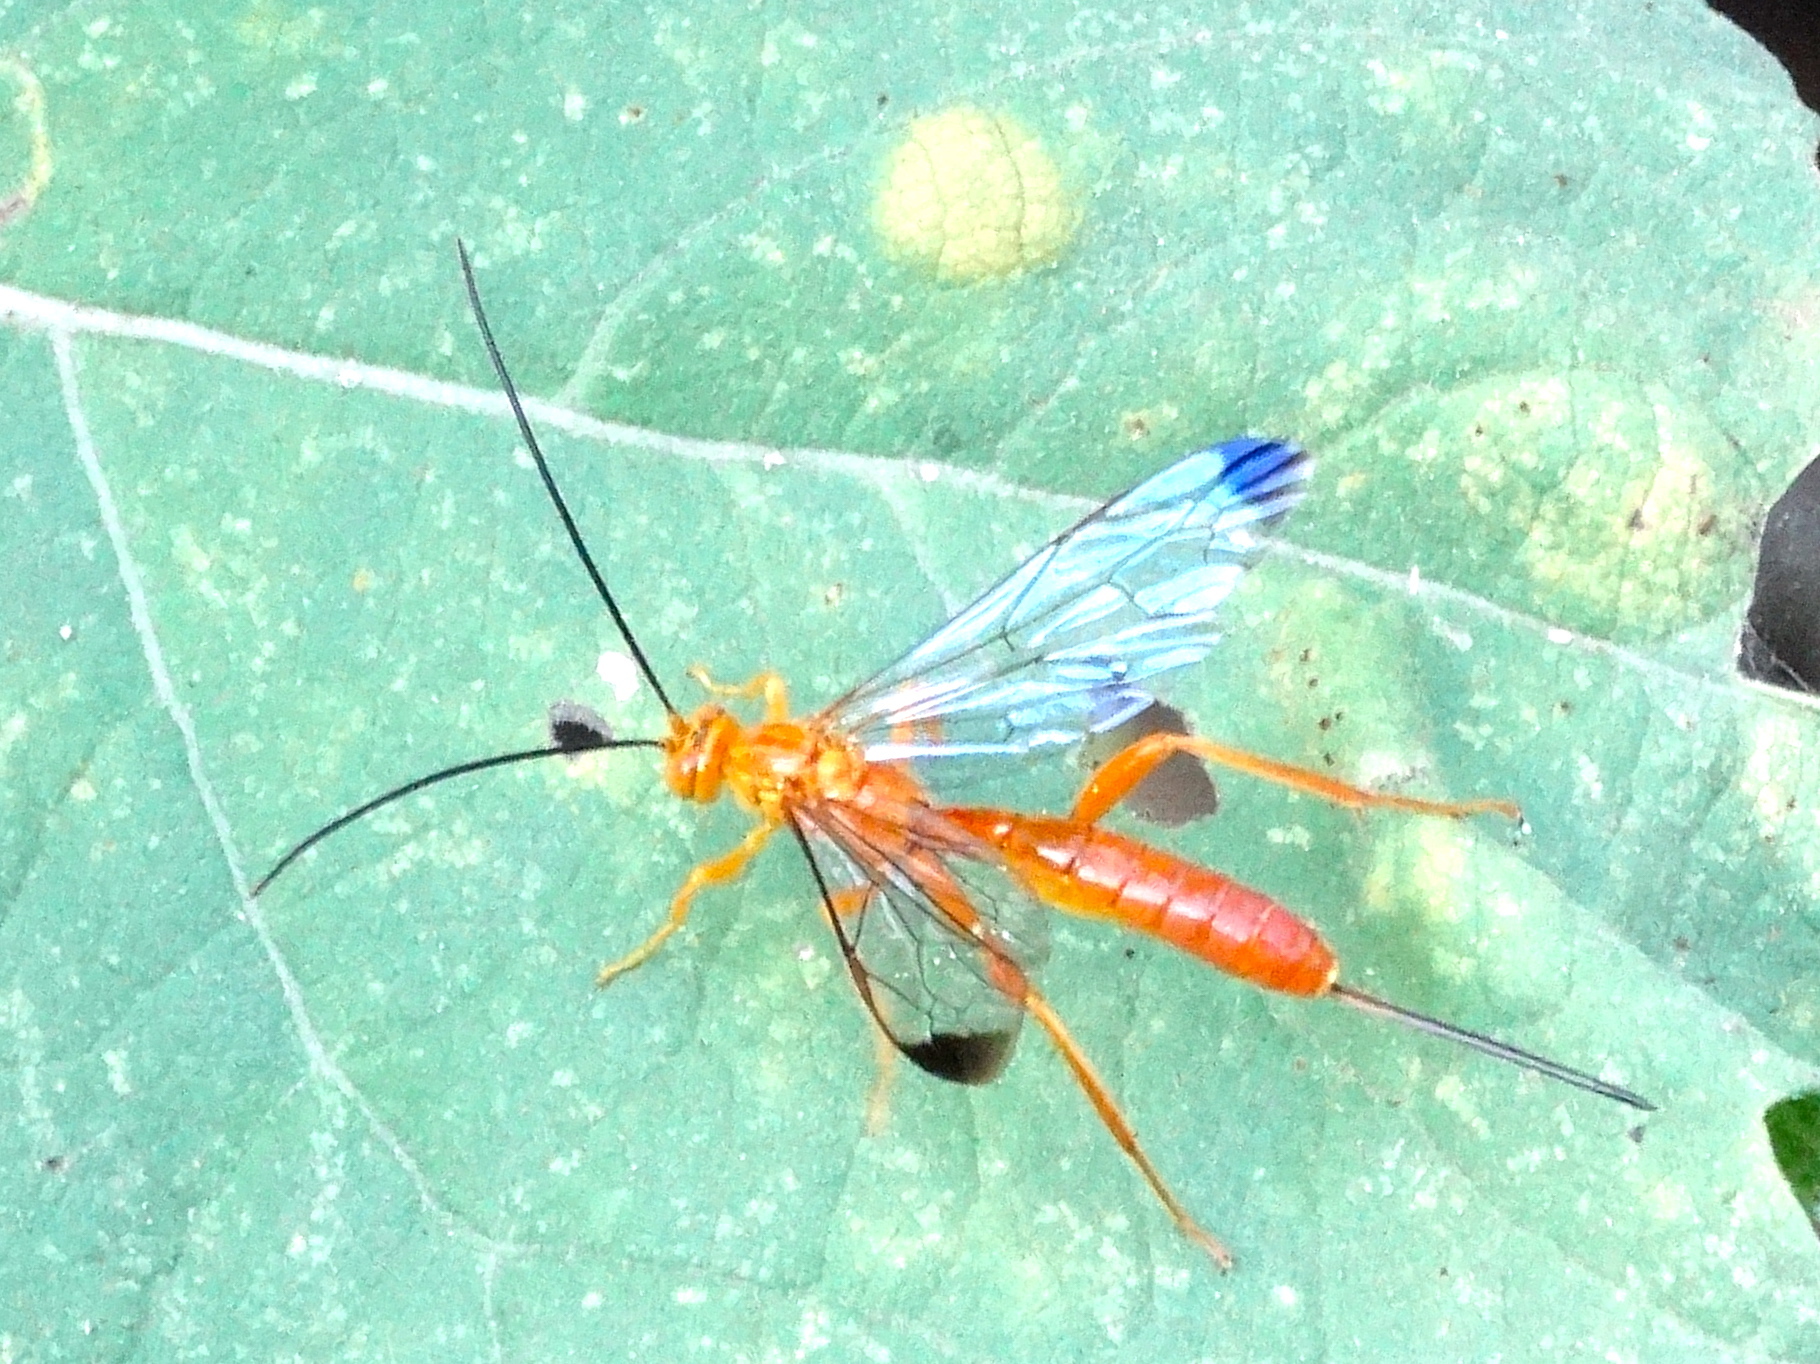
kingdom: Animalia
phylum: Arthropoda
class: Insecta
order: Hymenoptera
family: Ichneumonidae
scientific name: Ichneumonidae
